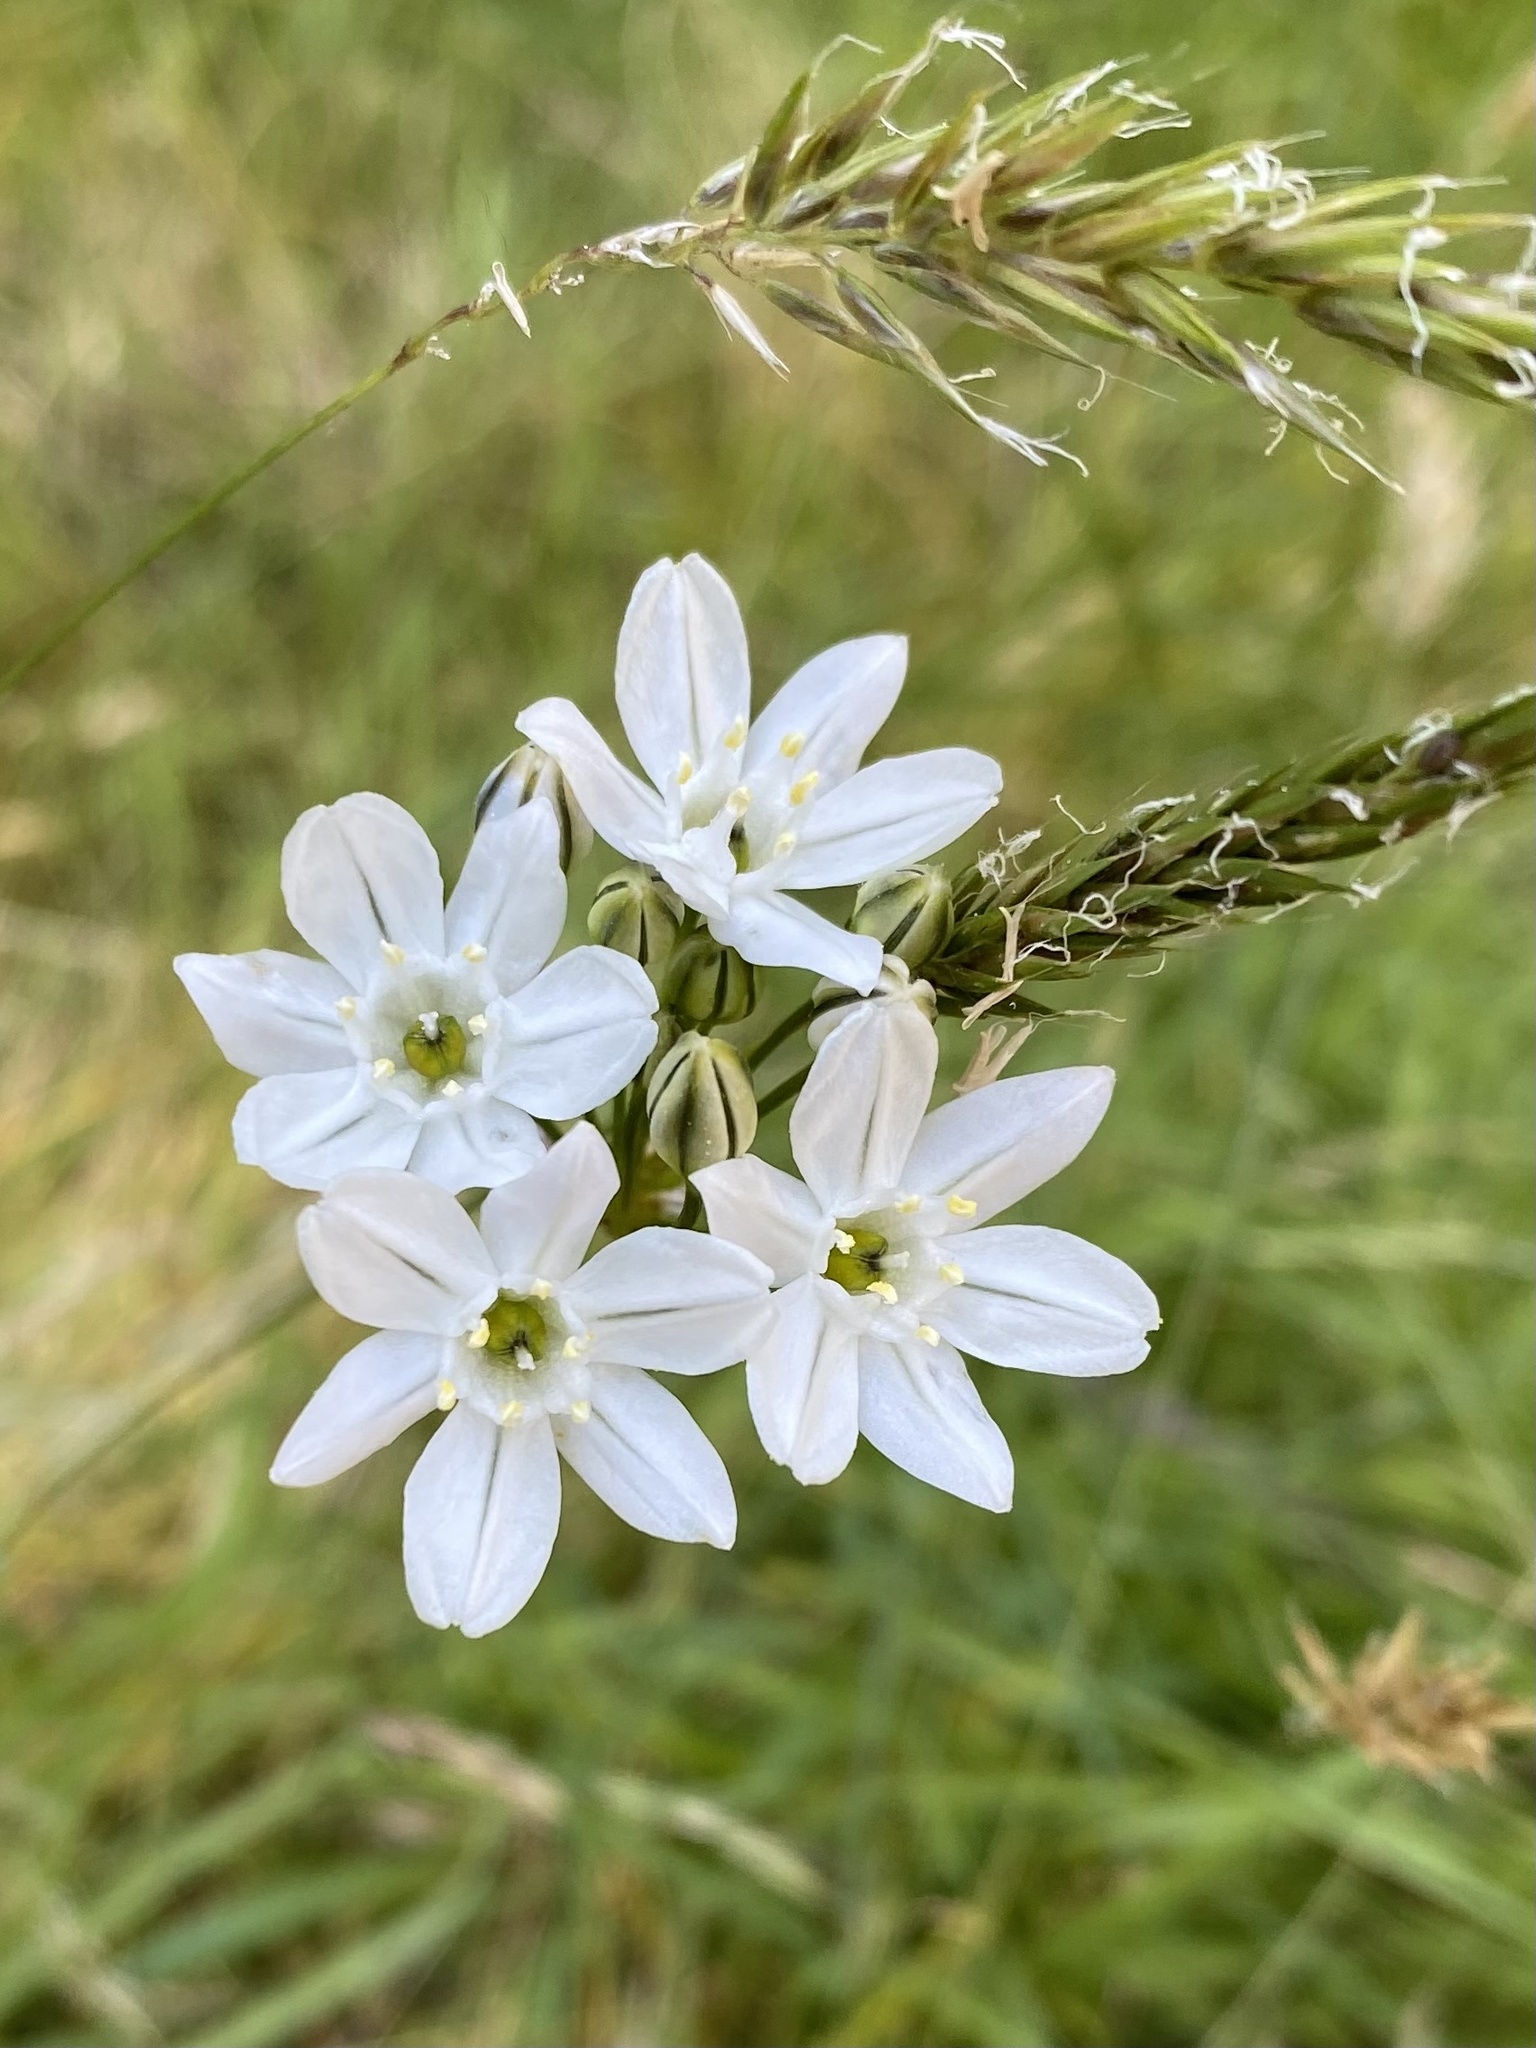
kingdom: Plantae
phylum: Tracheophyta
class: Liliopsida
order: Asparagales
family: Asparagaceae
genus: Triteleia
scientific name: Triteleia hyacinthina
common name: White brodiaea
